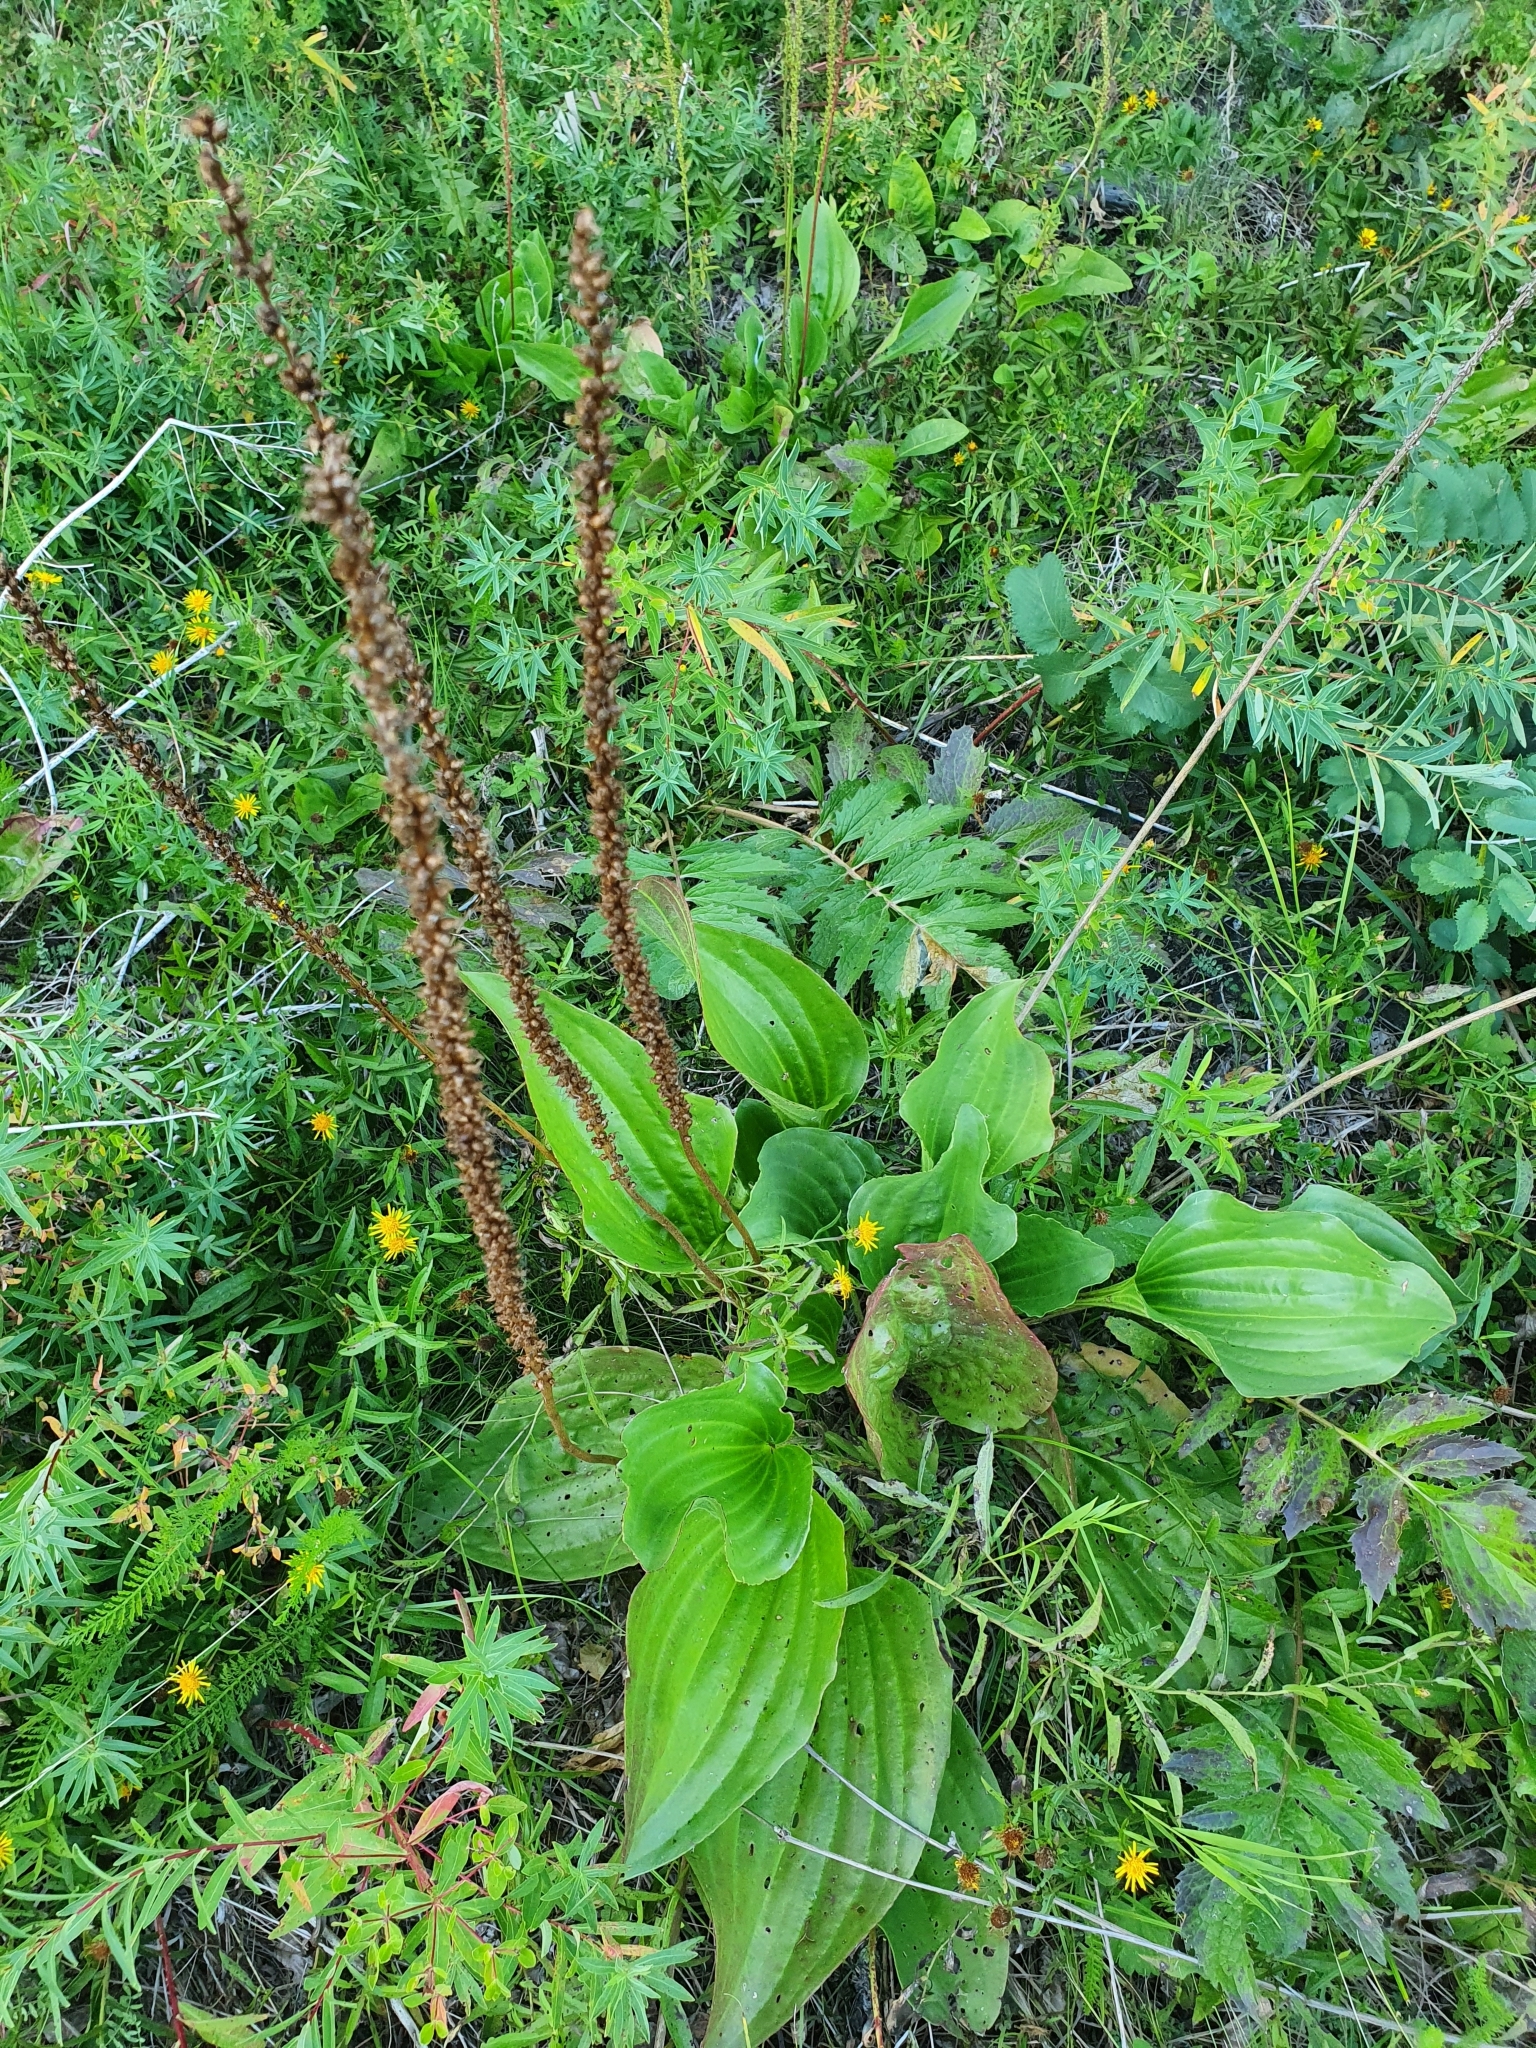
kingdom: Plantae
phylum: Tracheophyta
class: Magnoliopsida
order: Lamiales
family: Plantaginaceae
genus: Plantago
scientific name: Plantago cornuti
